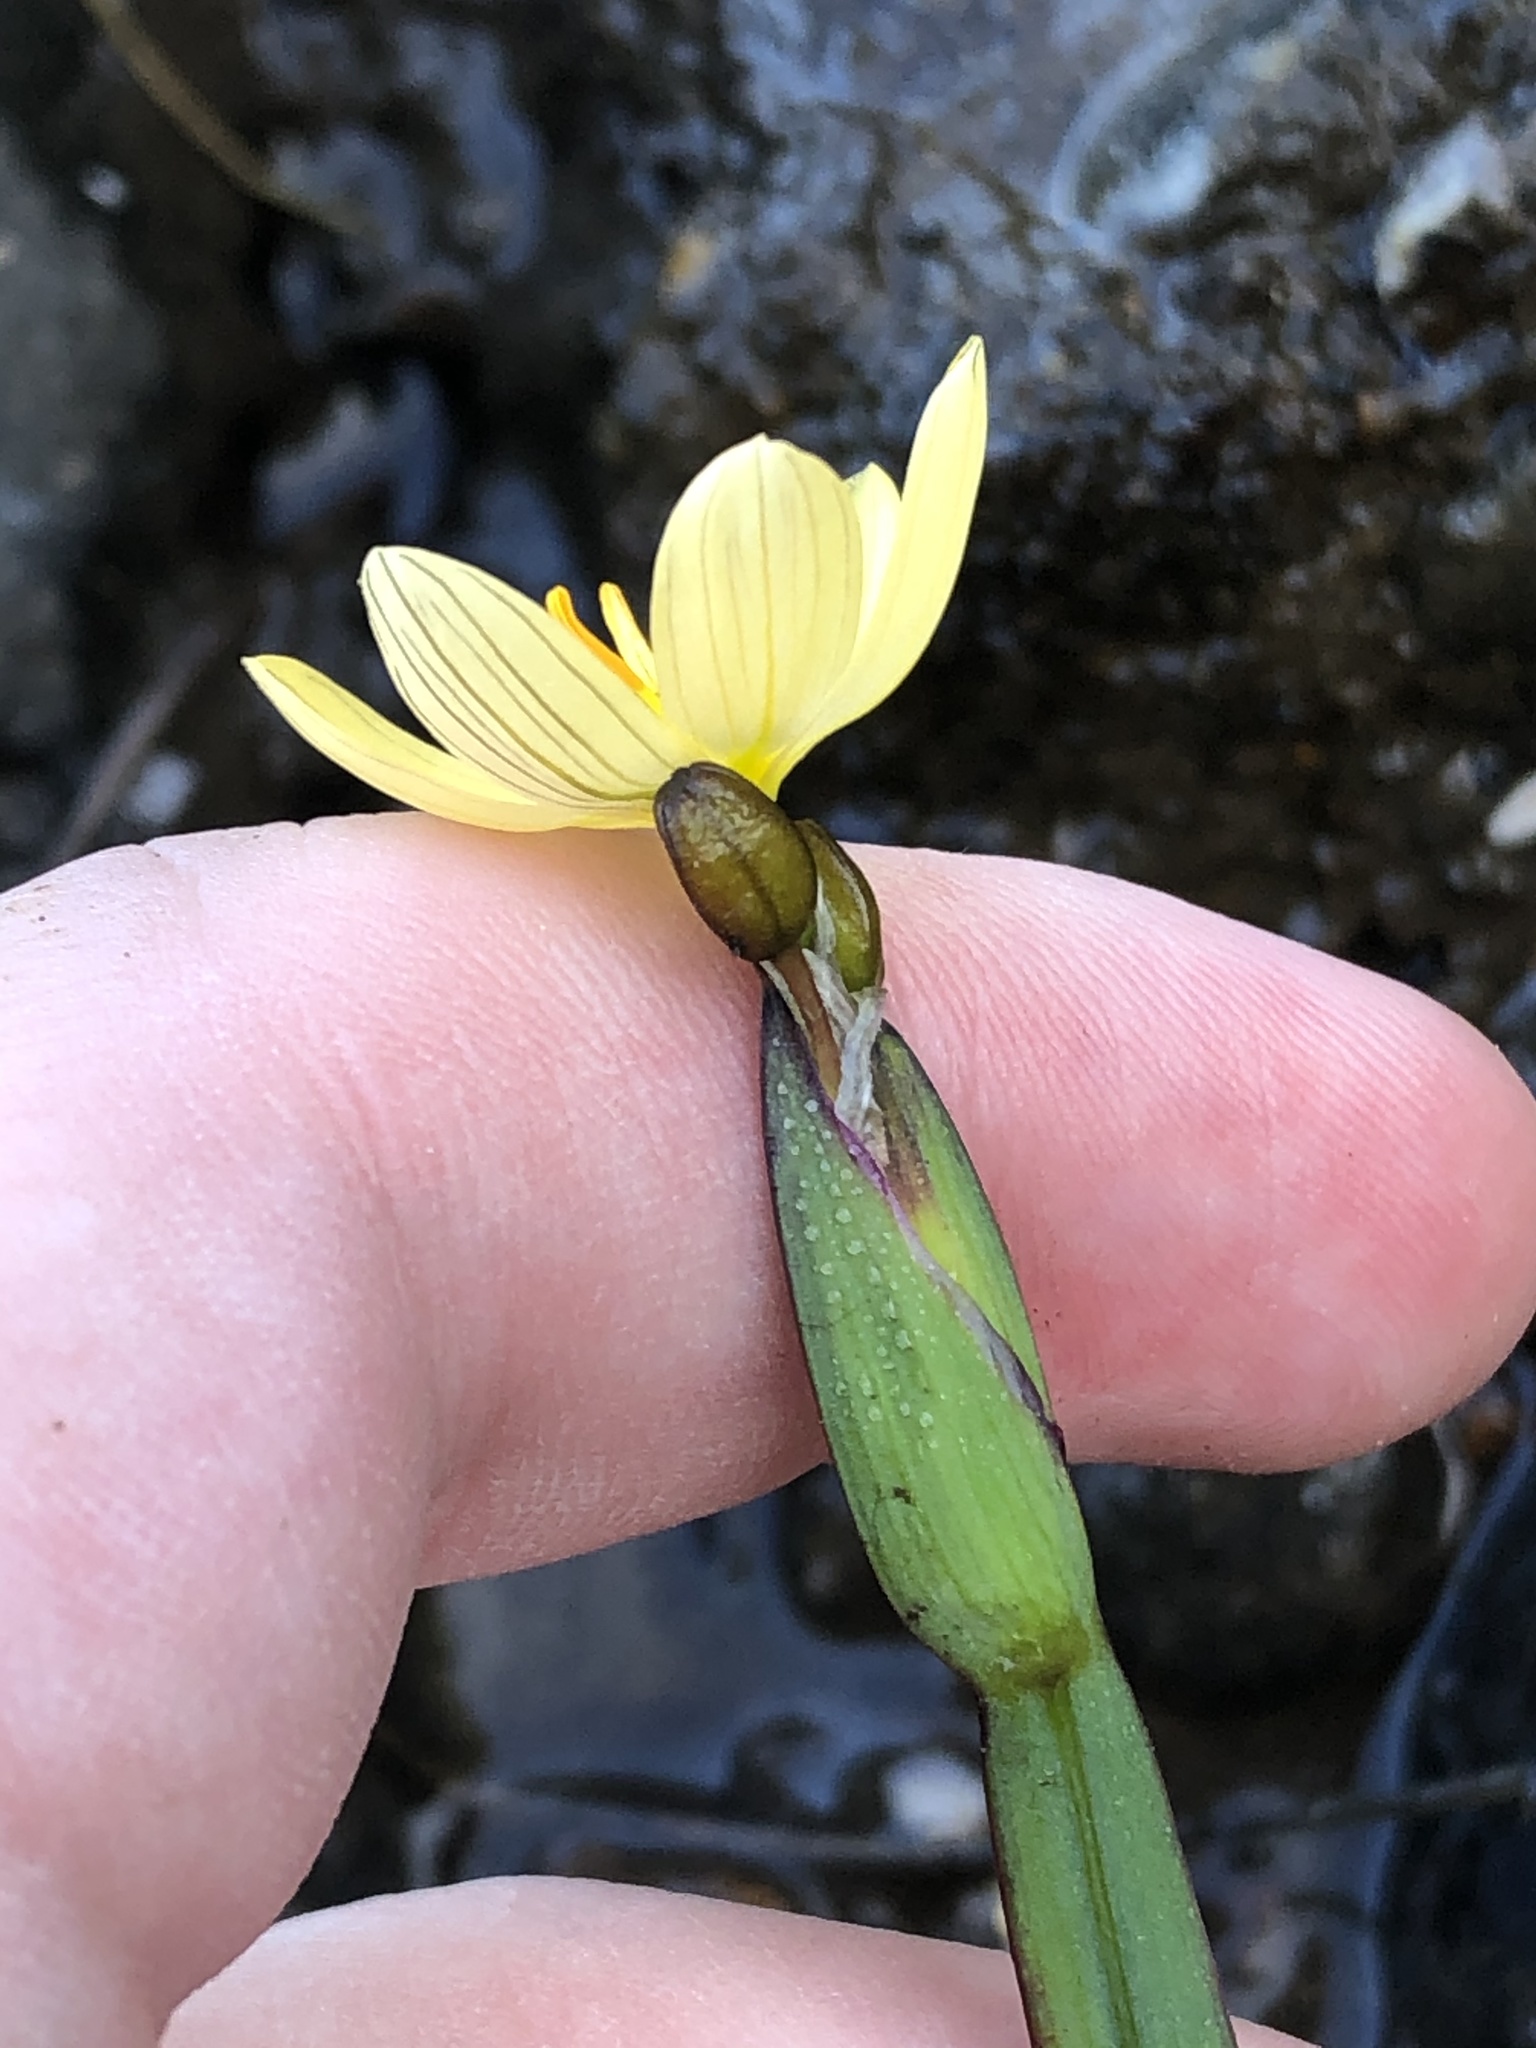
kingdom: Plantae
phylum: Tracheophyta
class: Liliopsida
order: Asparagales
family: Iridaceae
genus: Sisyrinchium
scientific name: Sisyrinchium californicum
